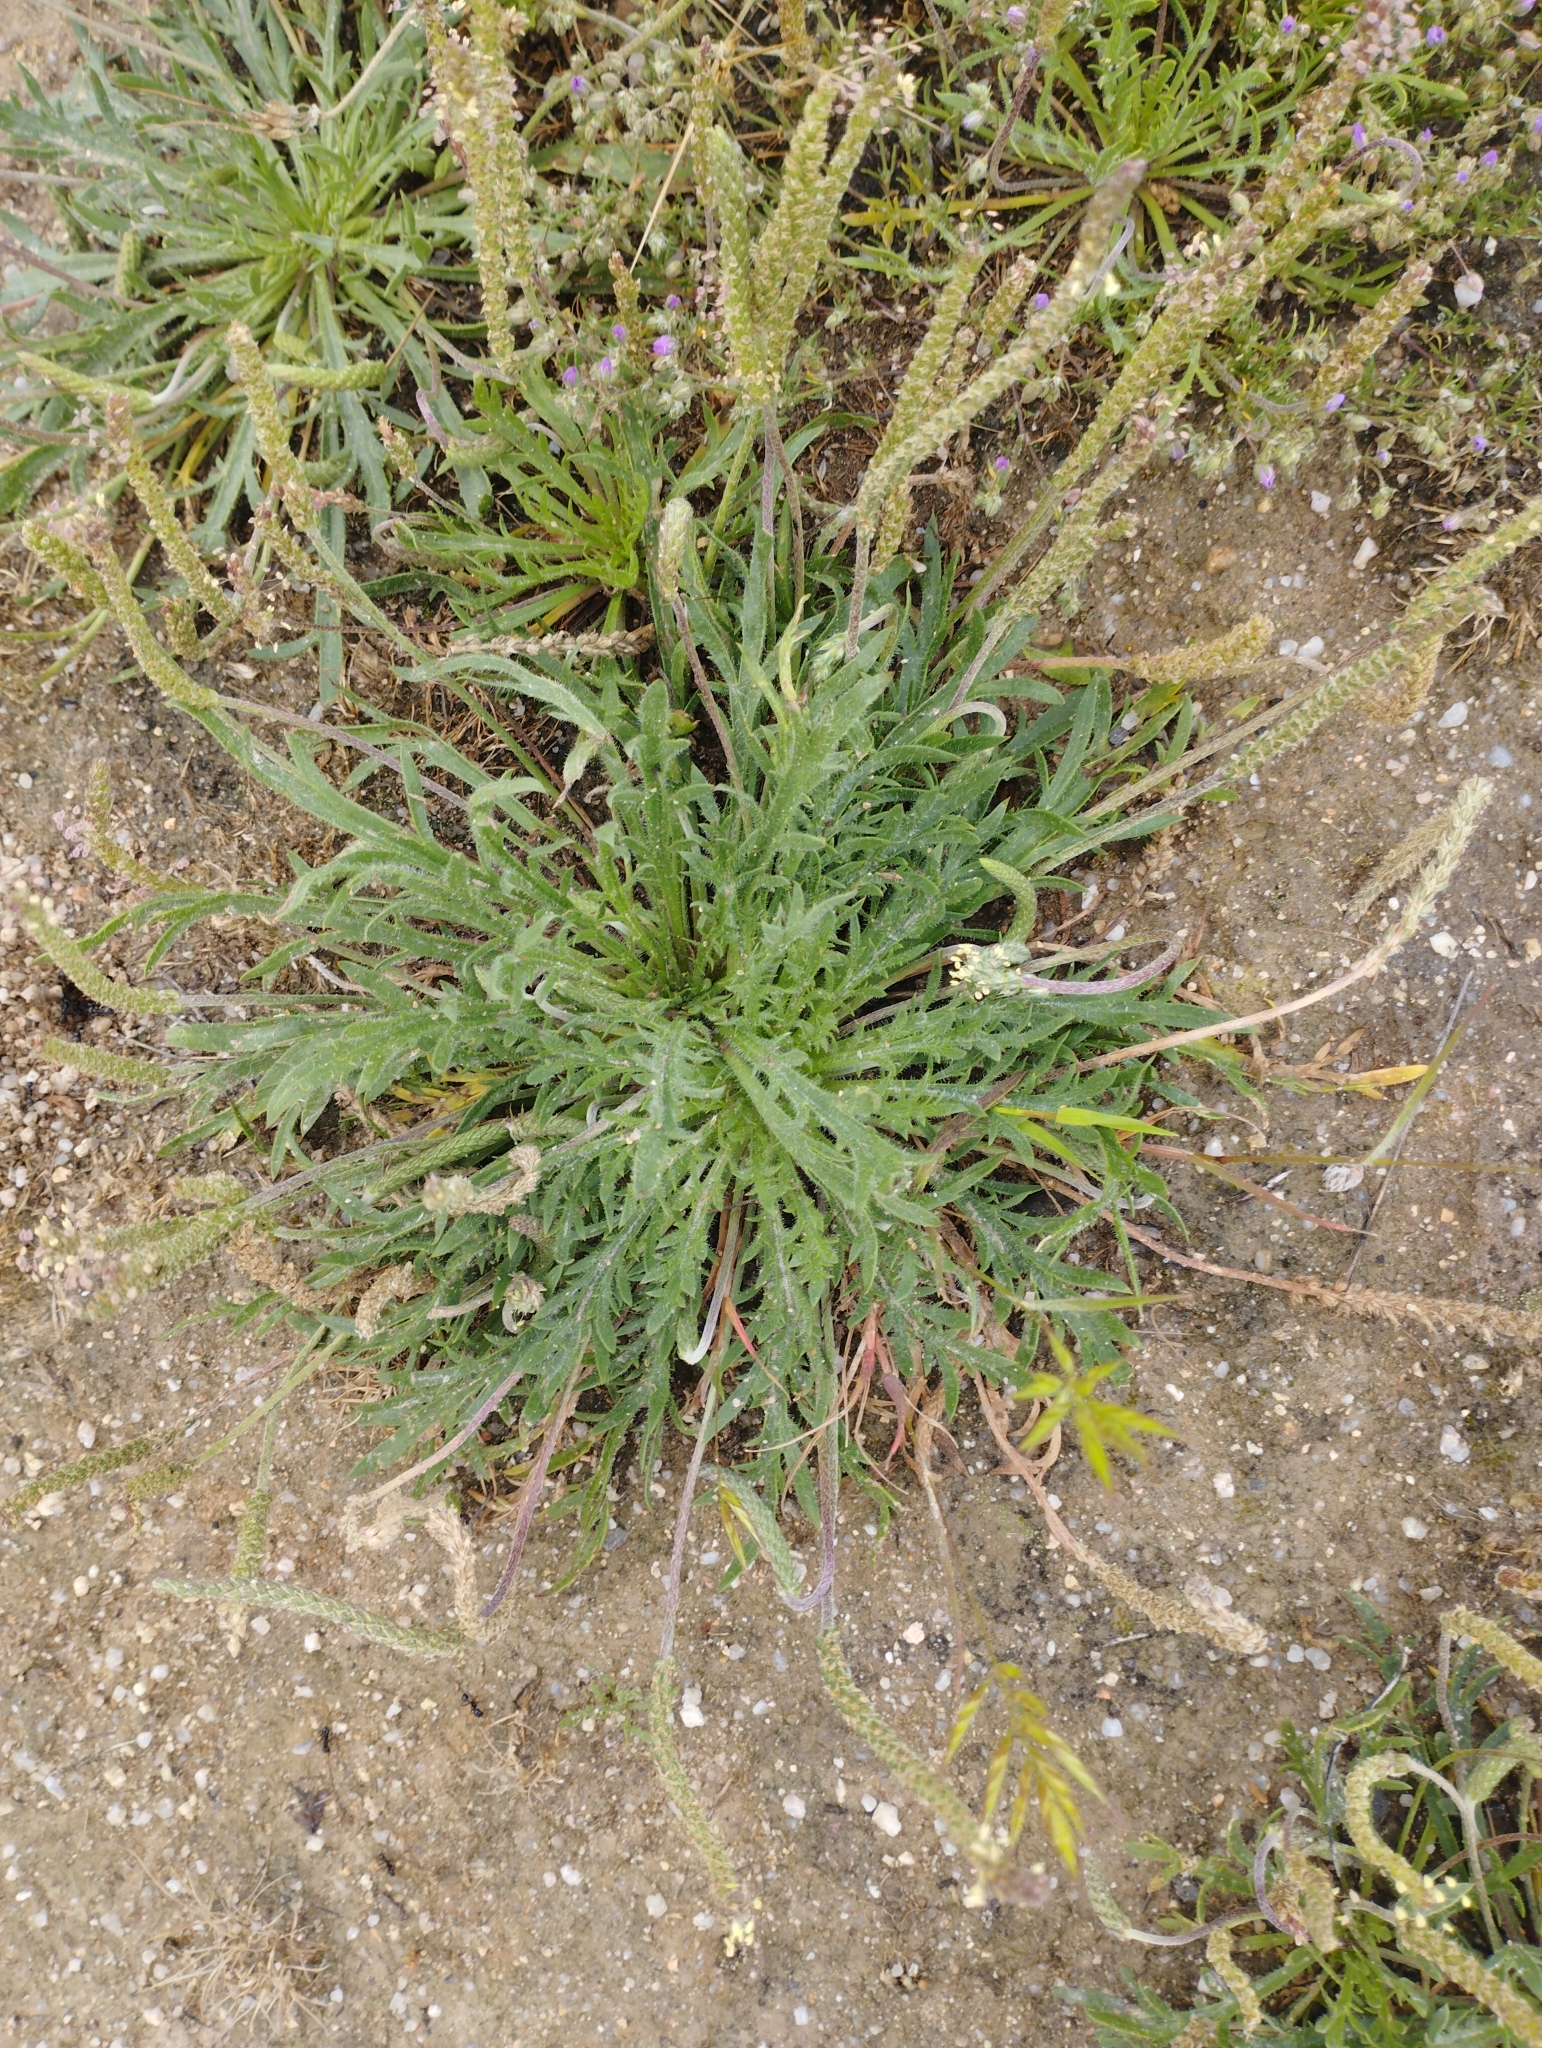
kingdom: Plantae
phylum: Tracheophyta
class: Magnoliopsida
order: Lamiales
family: Plantaginaceae
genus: Plantago
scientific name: Plantago coronopus
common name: Buck's-horn plantain
